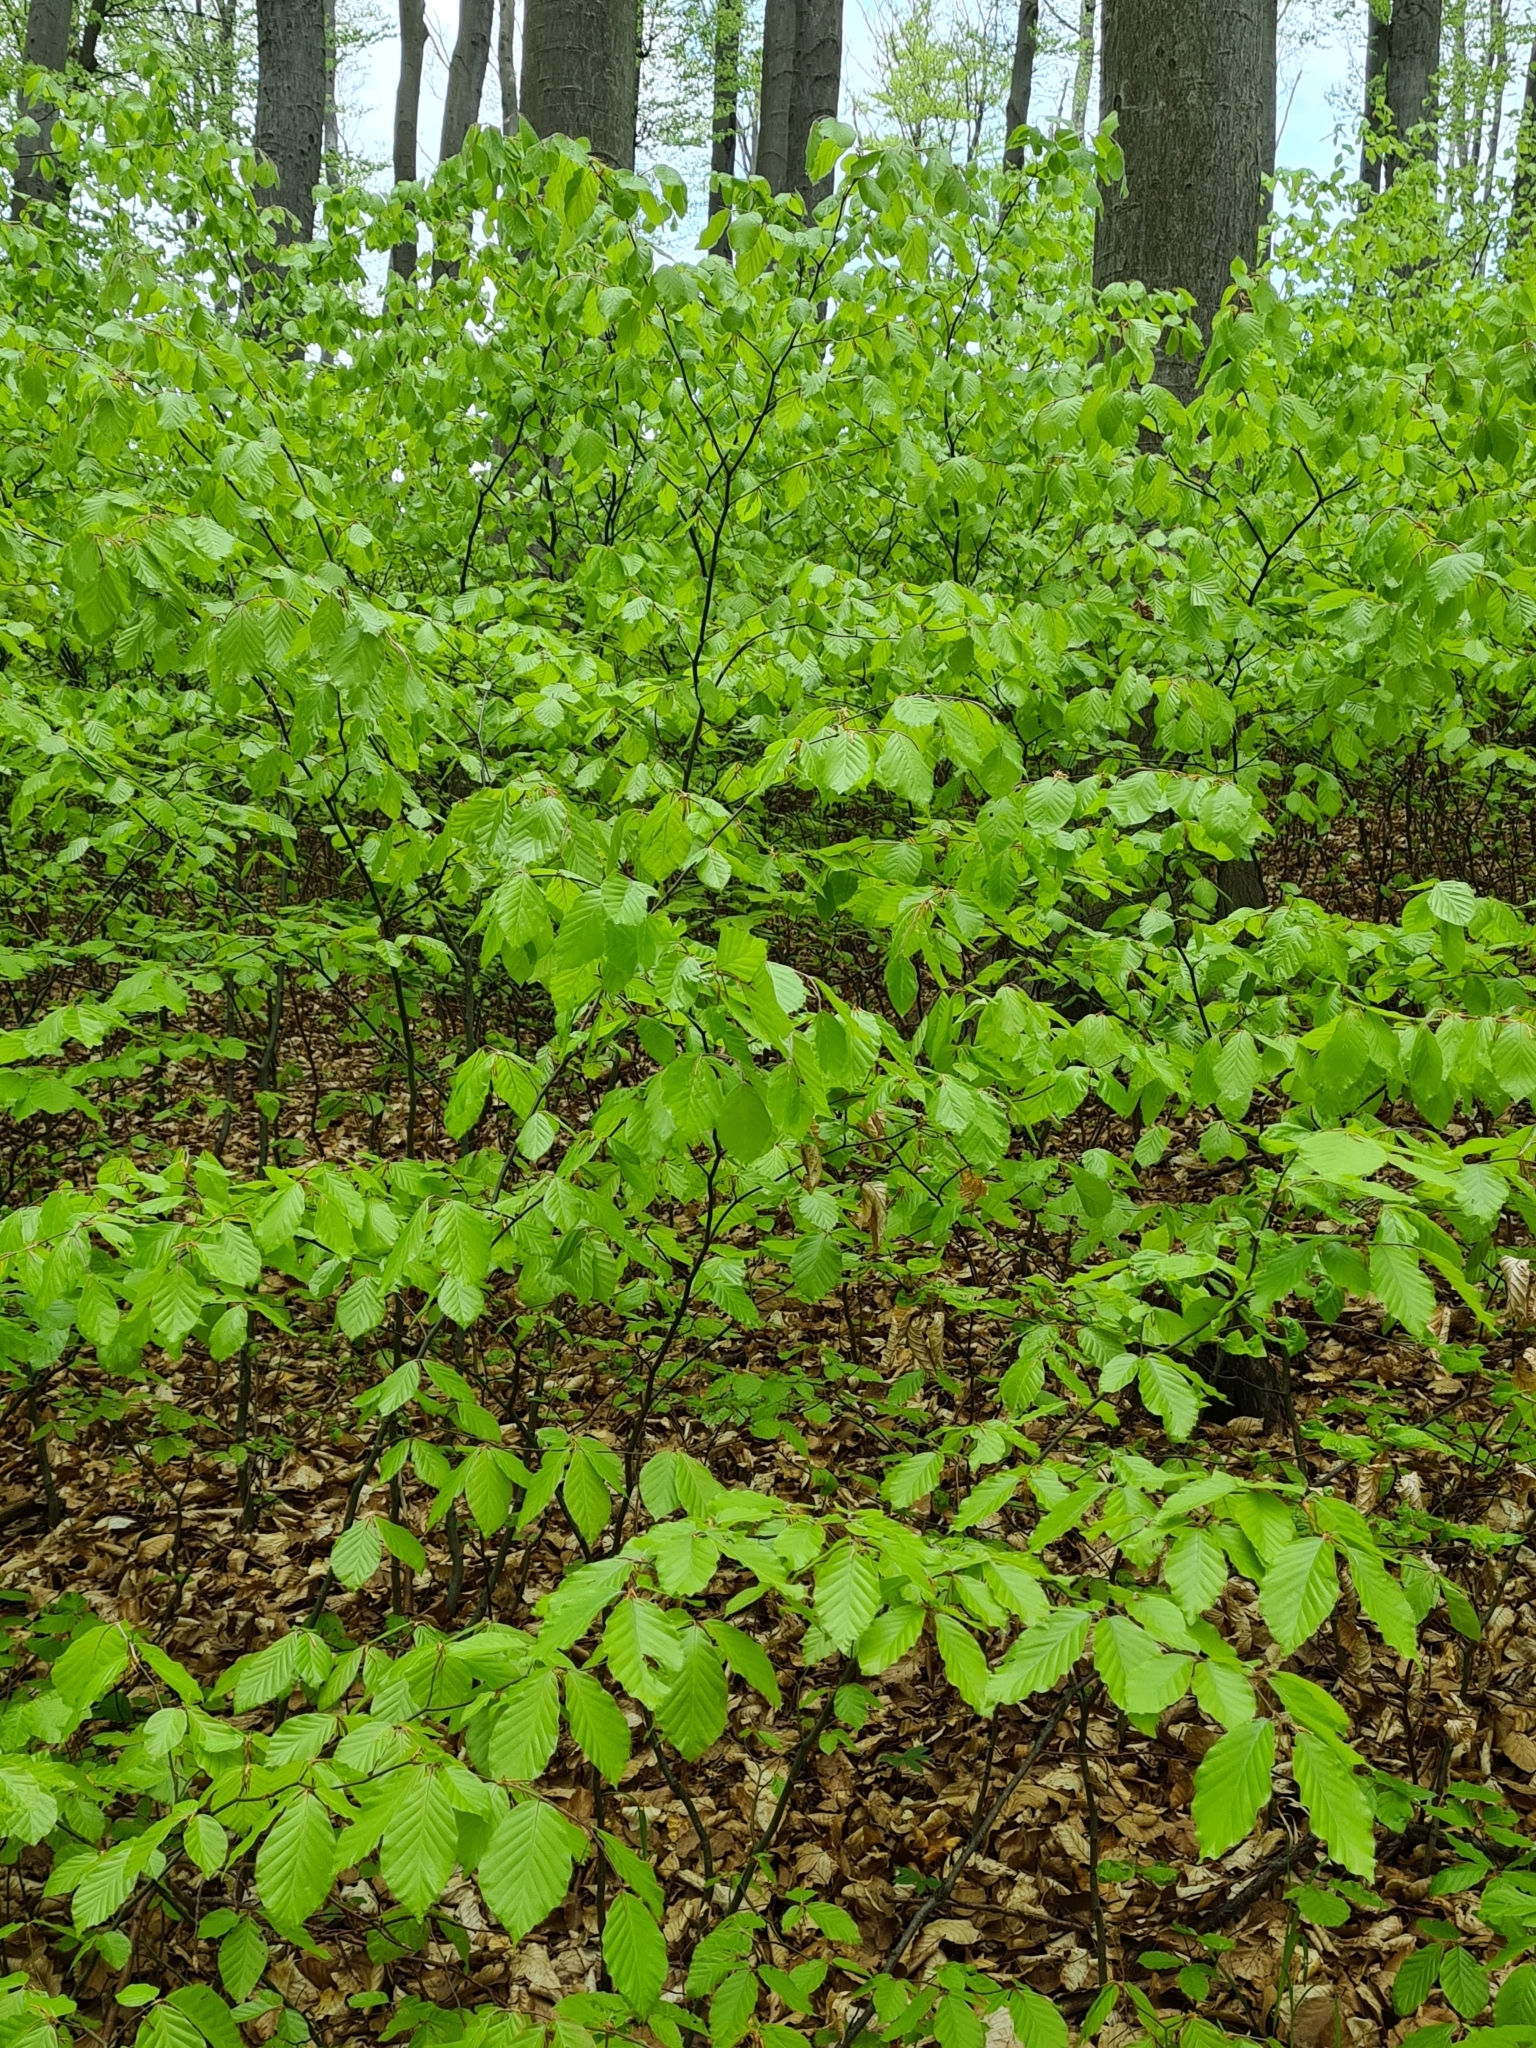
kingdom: Plantae
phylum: Tracheophyta
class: Magnoliopsida
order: Fagales
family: Fagaceae
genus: Fagus
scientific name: Fagus sylvatica
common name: Beech
